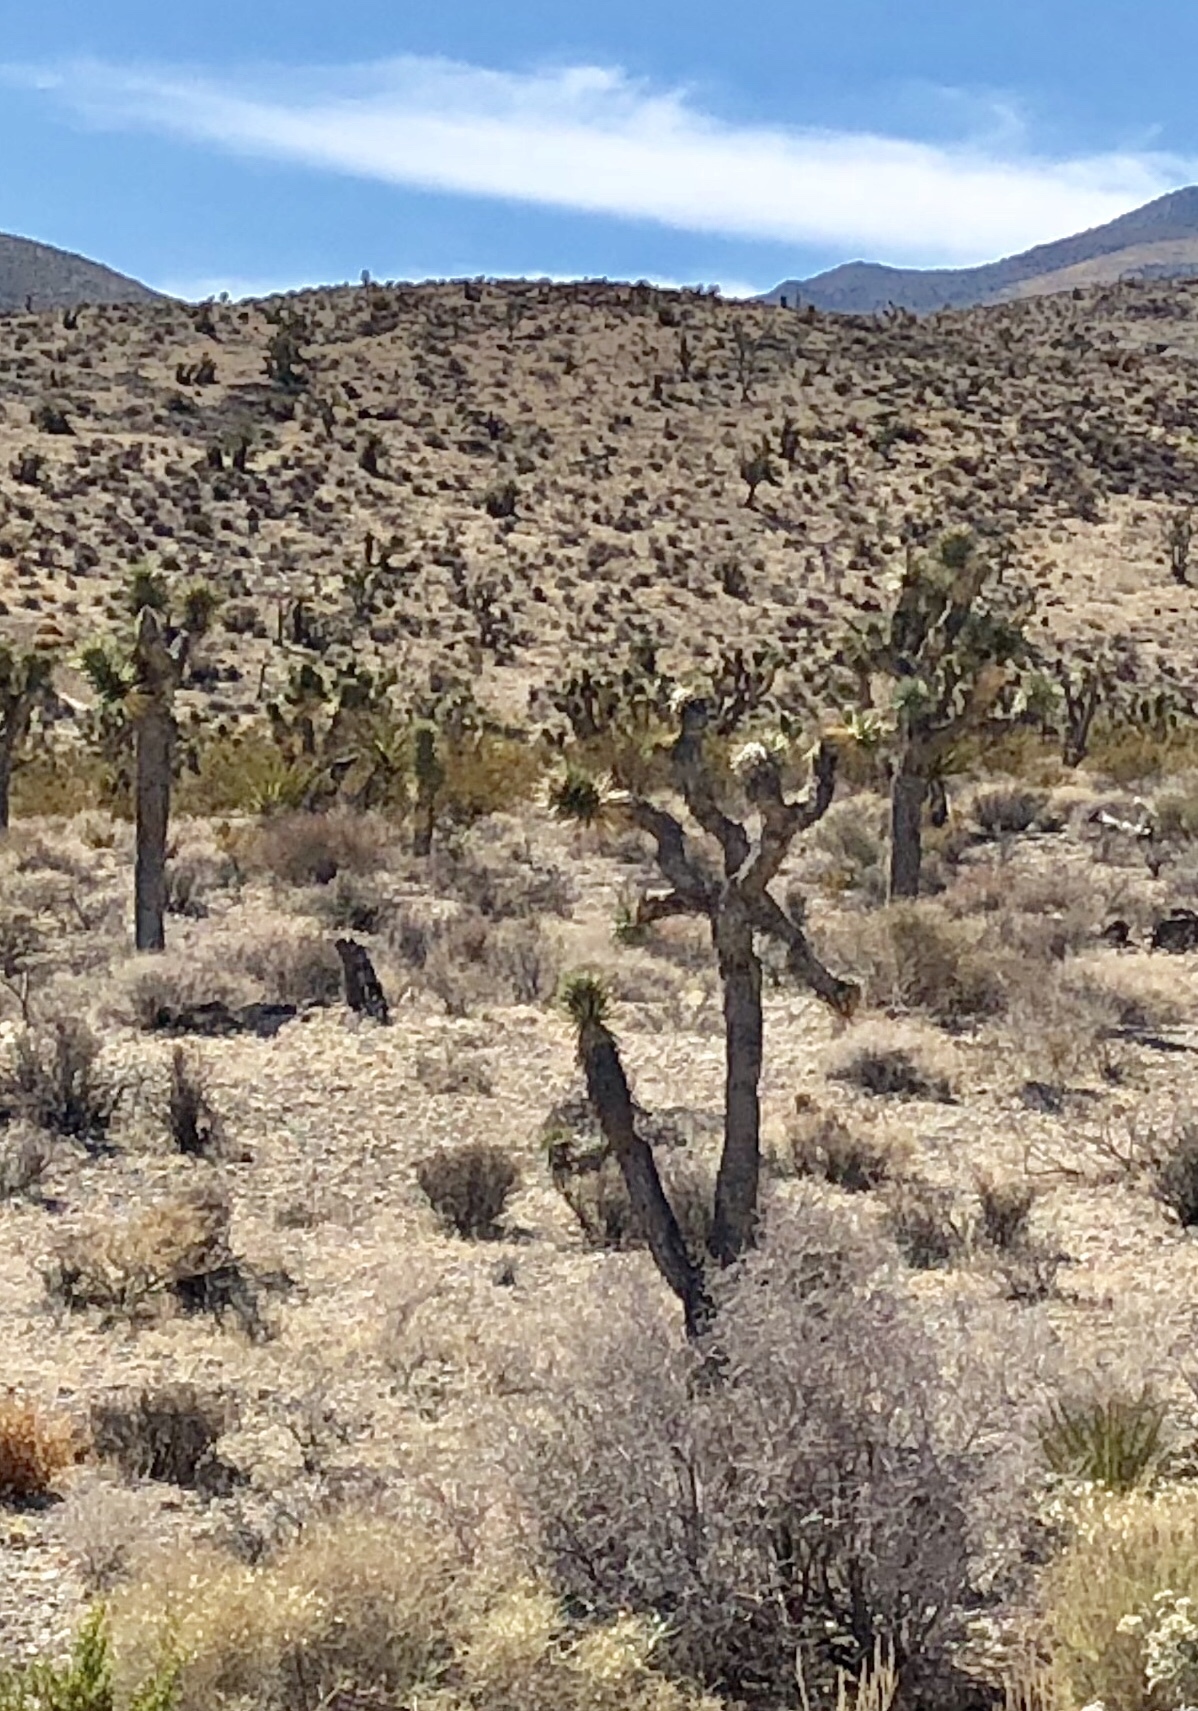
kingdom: Plantae
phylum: Tracheophyta
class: Liliopsida
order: Asparagales
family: Asparagaceae
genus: Yucca
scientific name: Yucca brevifolia
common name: Joshua tree
